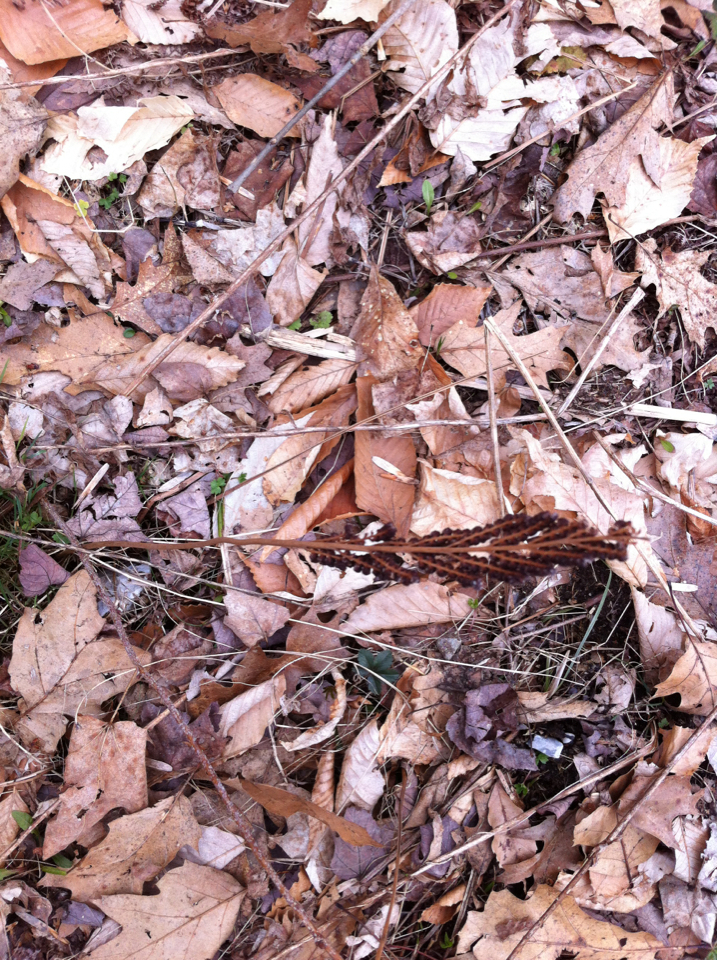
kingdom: Plantae
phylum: Tracheophyta
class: Polypodiopsida
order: Polypodiales
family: Onocleaceae
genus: Onoclea
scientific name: Onoclea sensibilis
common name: Sensitive fern
